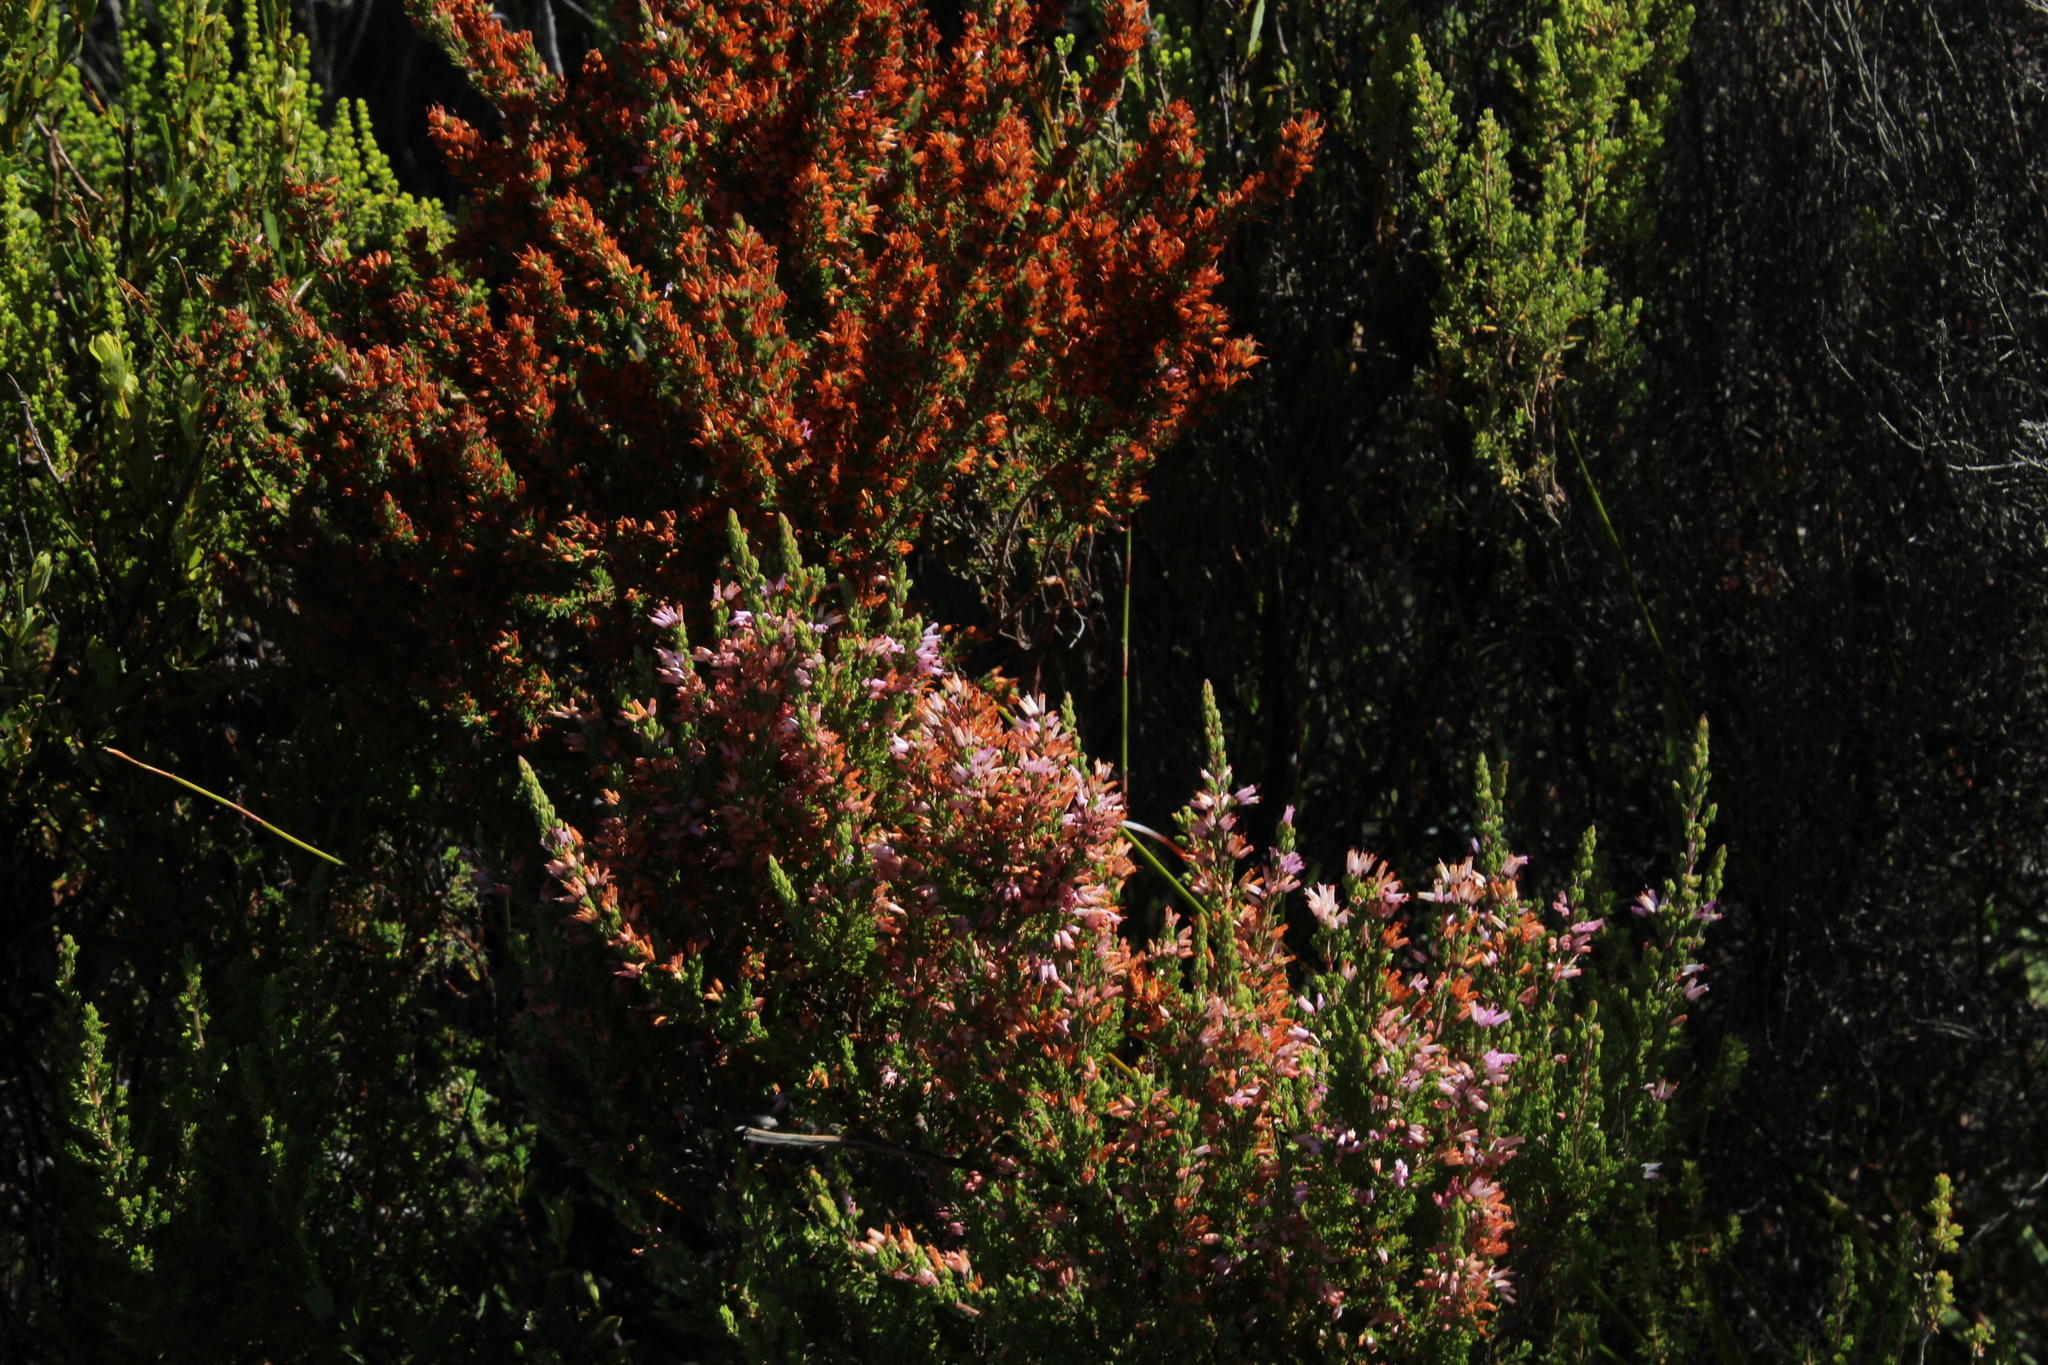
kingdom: Plantae
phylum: Tracheophyta
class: Magnoliopsida
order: Ericales
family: Ericaceae
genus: Erica
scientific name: Erica longimontana
